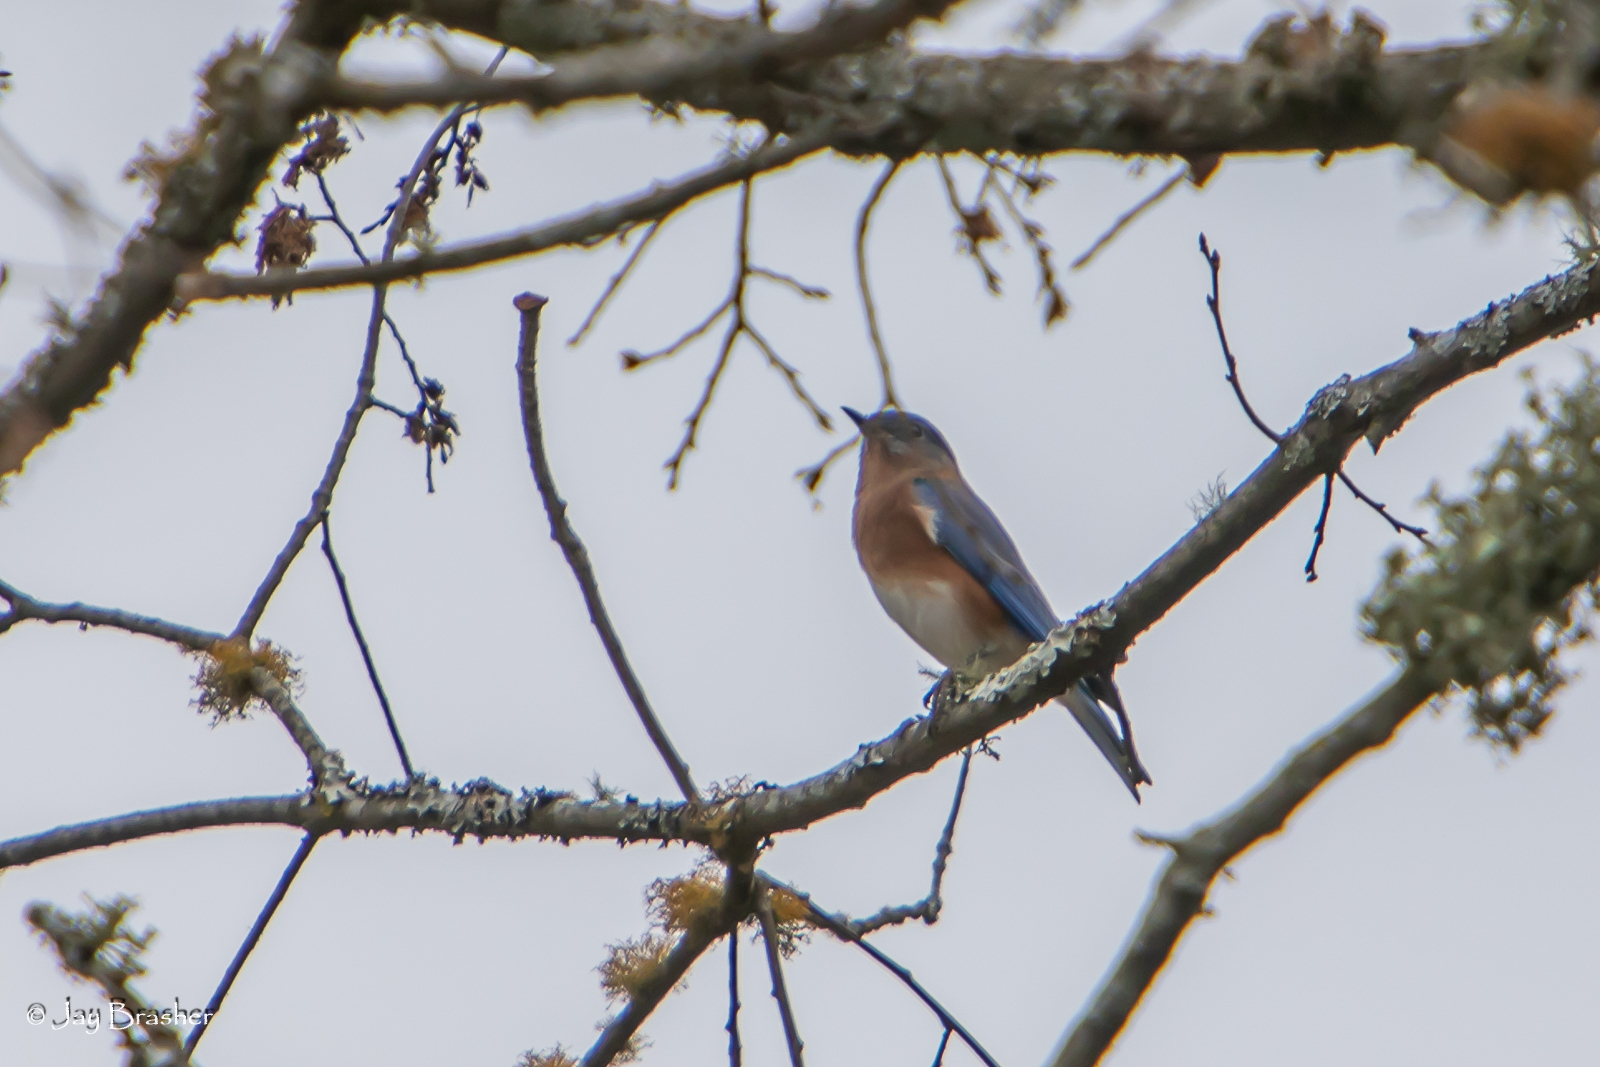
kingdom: Animalia
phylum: Chordata
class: Aves
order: Passeriformes
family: Turdidae
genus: Sialia
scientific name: Sialia sialis
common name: Eastern bluebird
